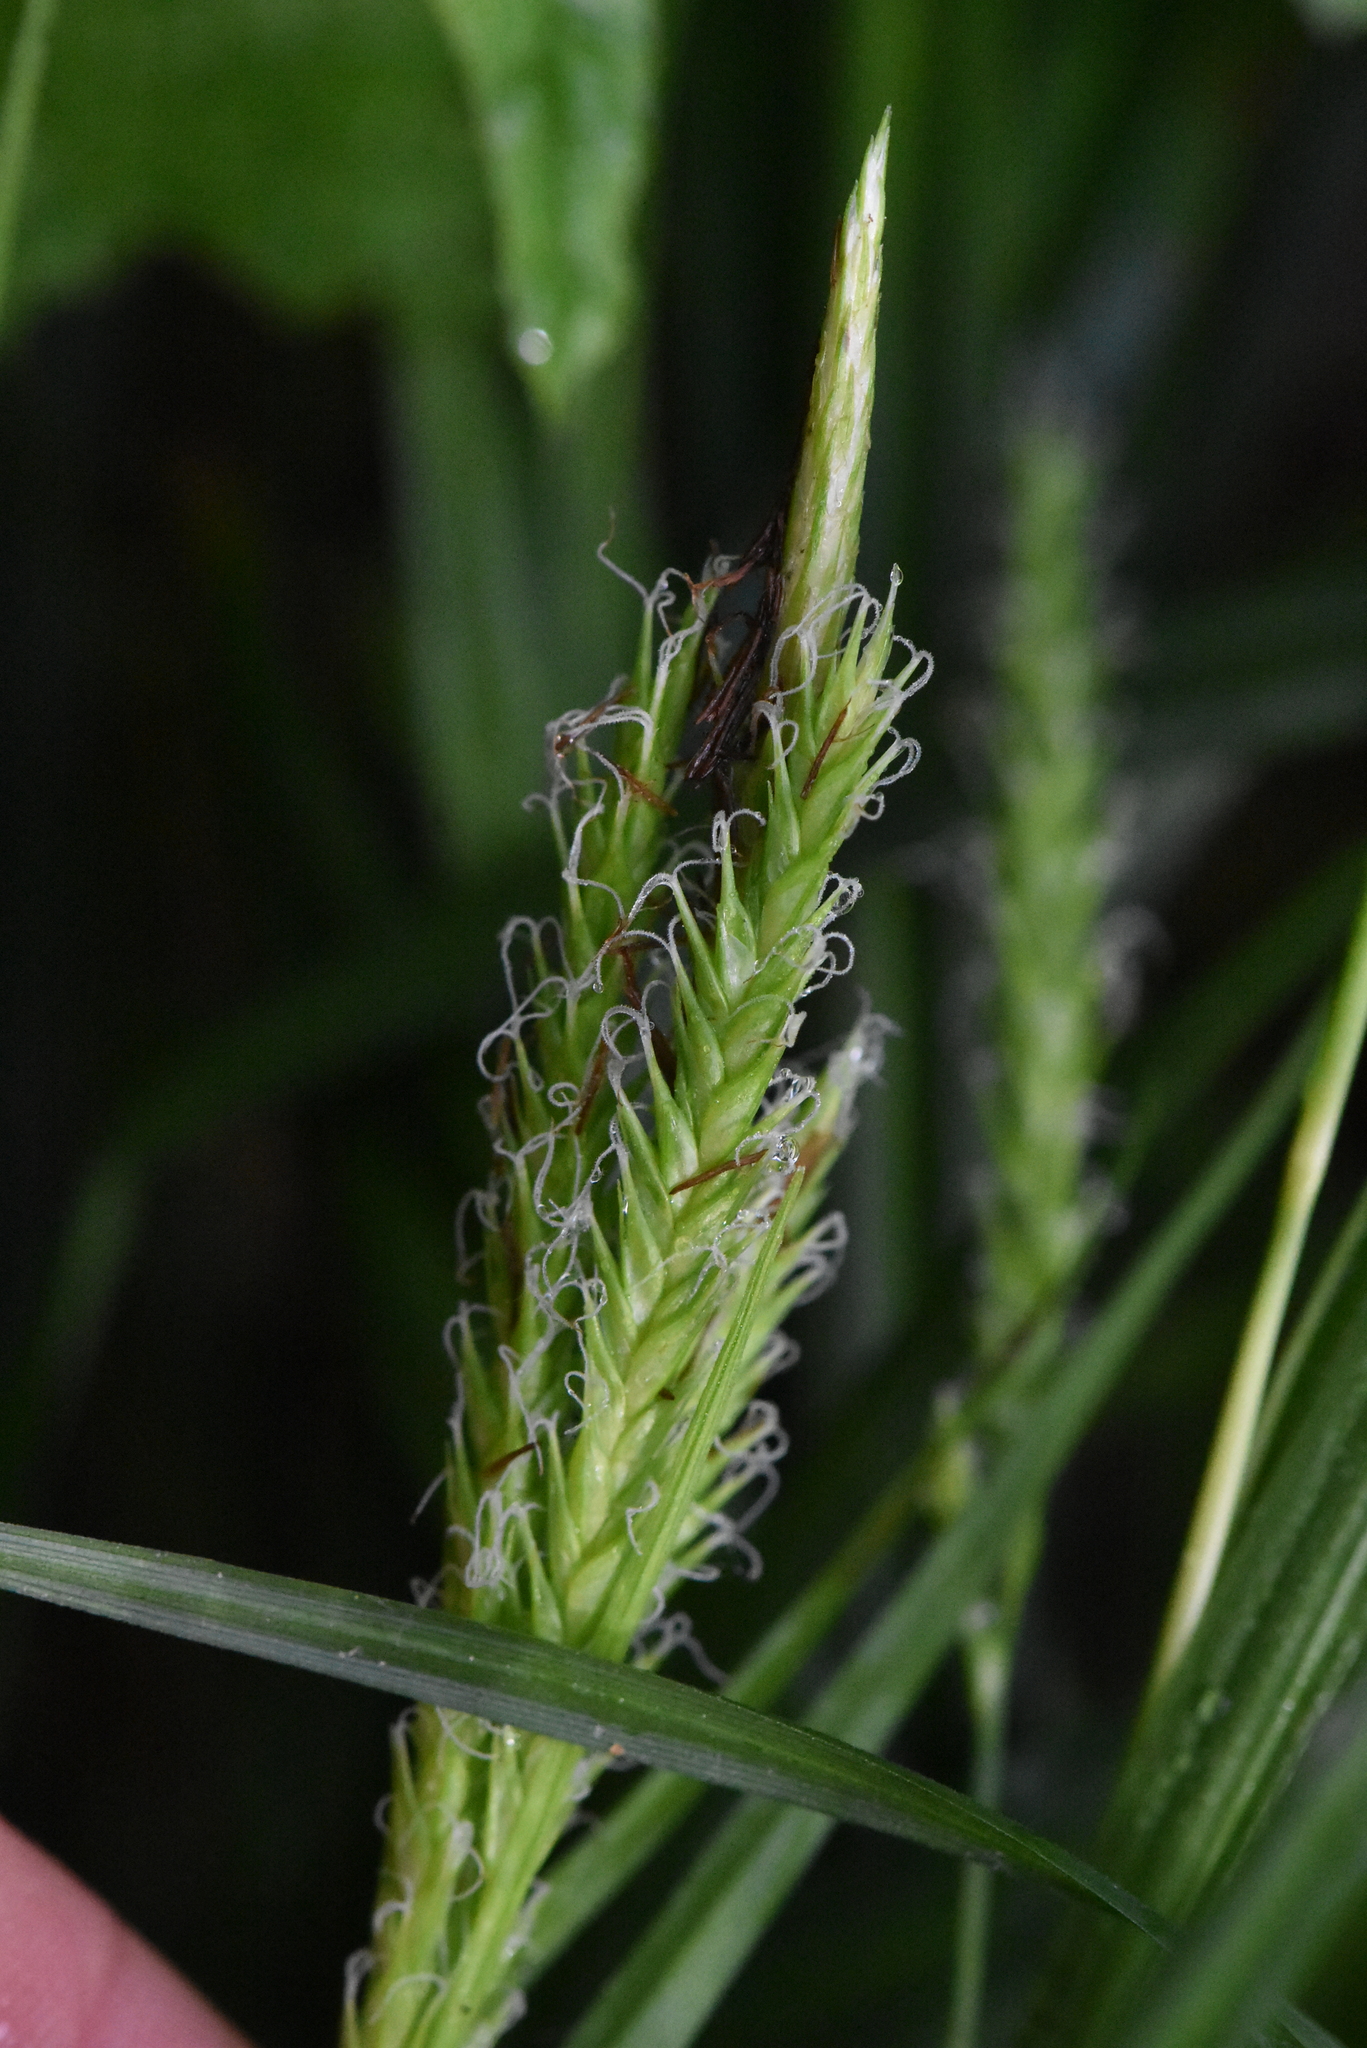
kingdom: Plantae
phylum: Tracheophyta
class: Liliopsida
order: Poales
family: Cyperaceae
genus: Carex
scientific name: Carex sylvatica
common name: Wood-sedge
